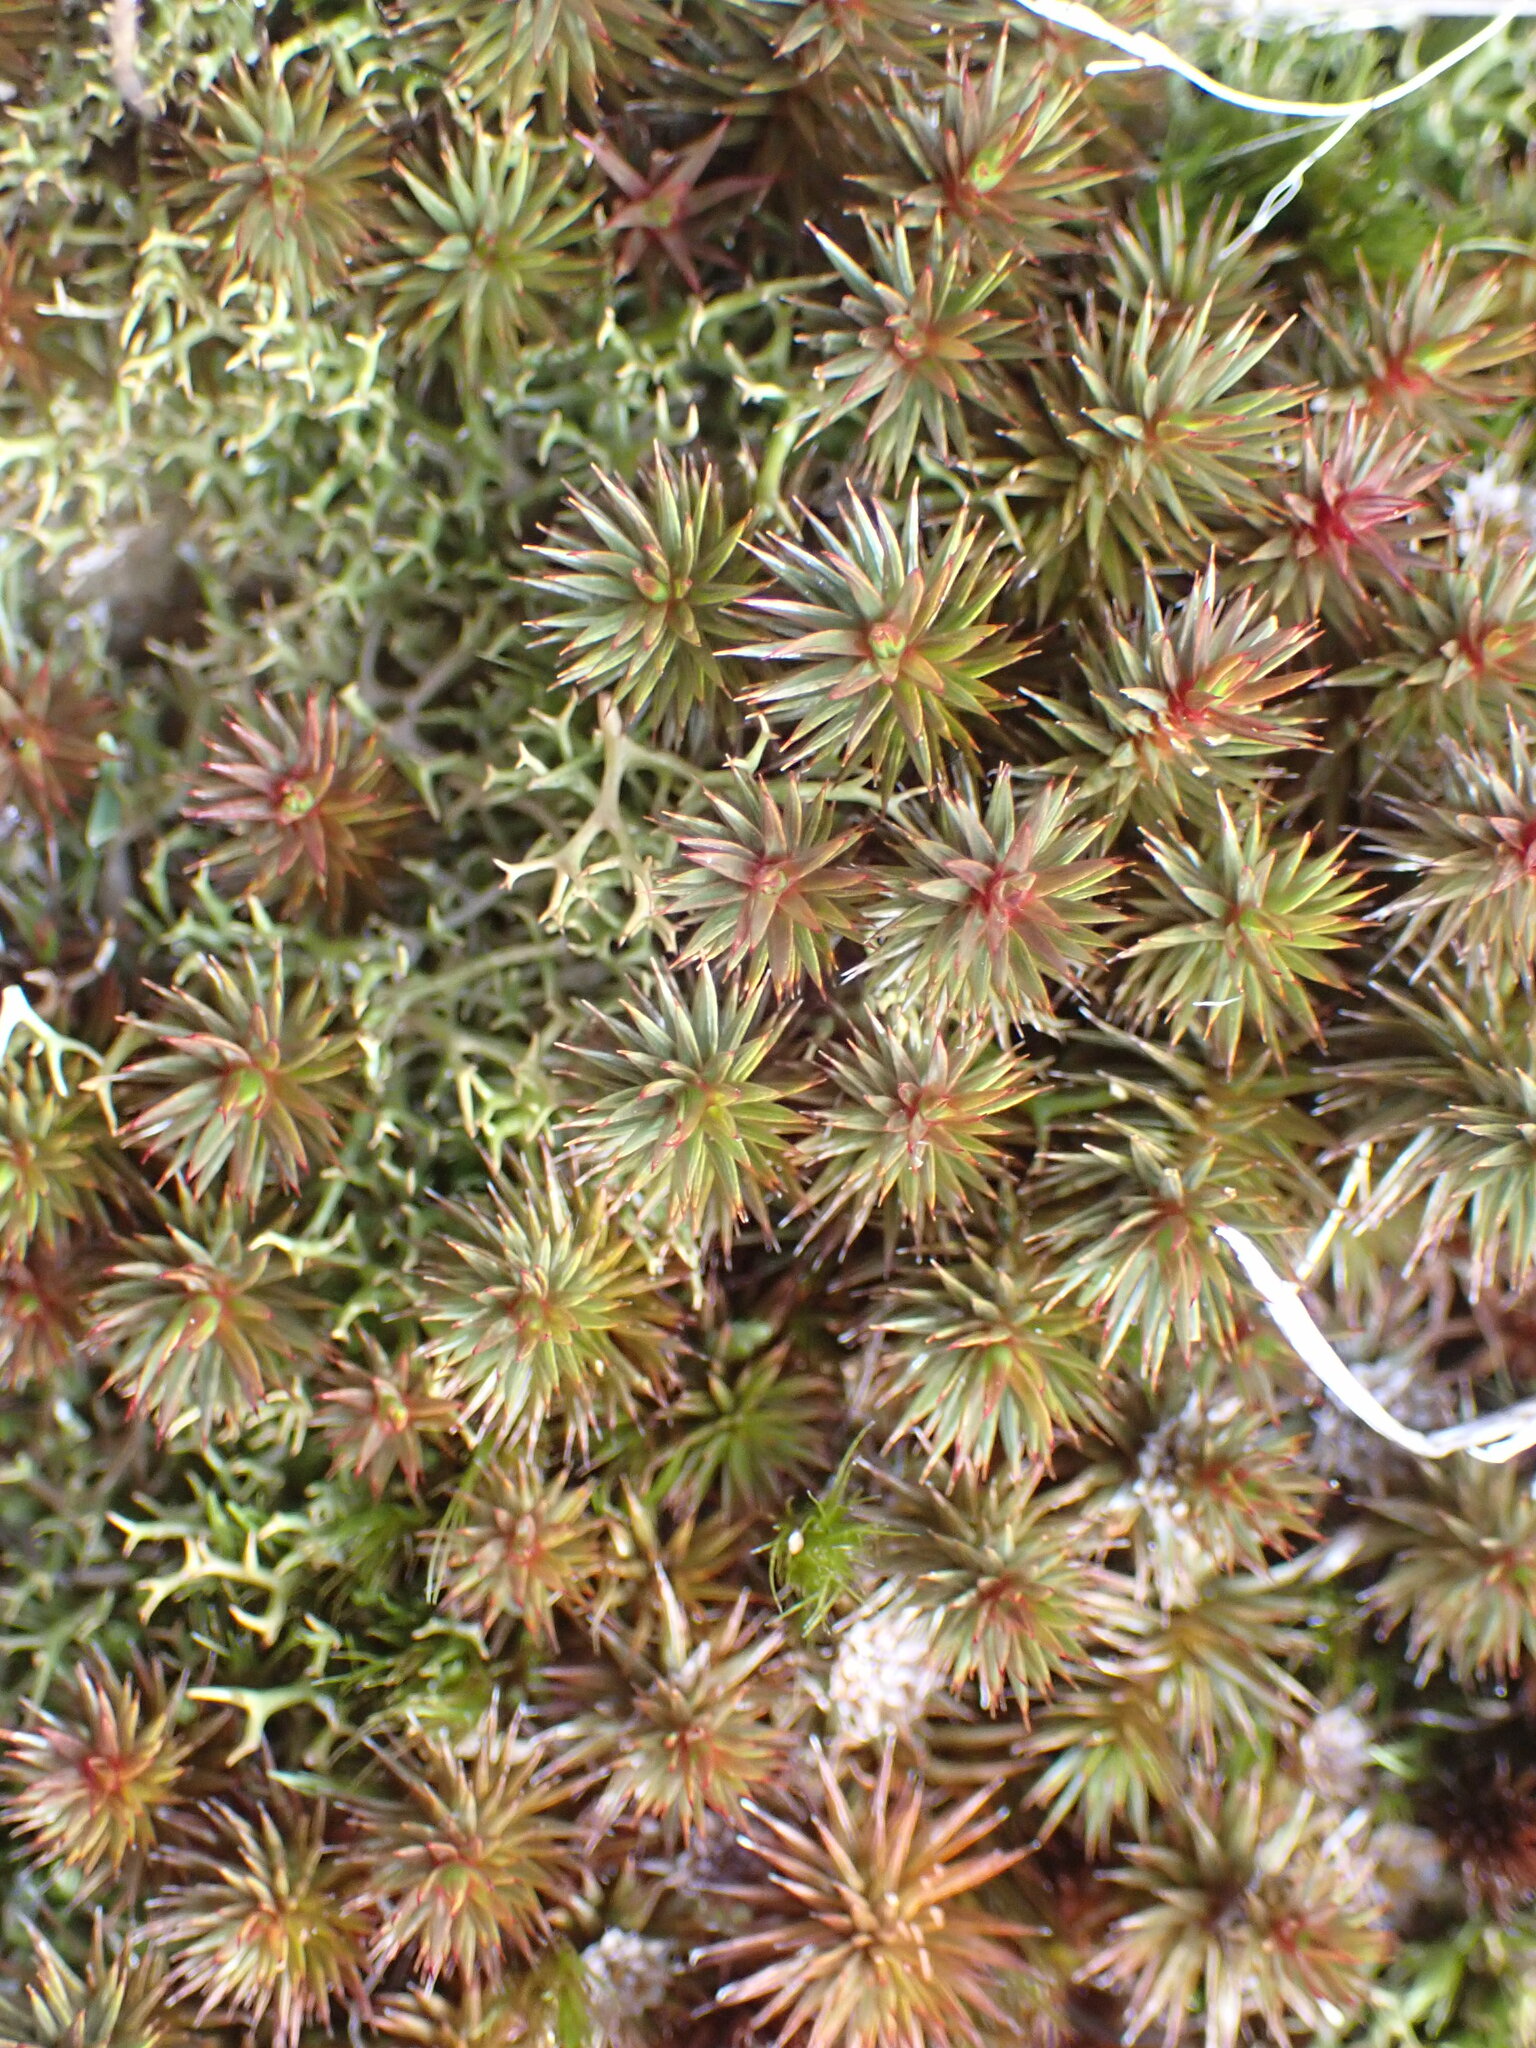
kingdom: Plantae
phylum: Bryophyta
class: Polytrichopsida
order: Polytrichales
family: Polytrichaceae
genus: Polytrichum
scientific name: Polytrichum juniperinum
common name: Juniper haircap moss
